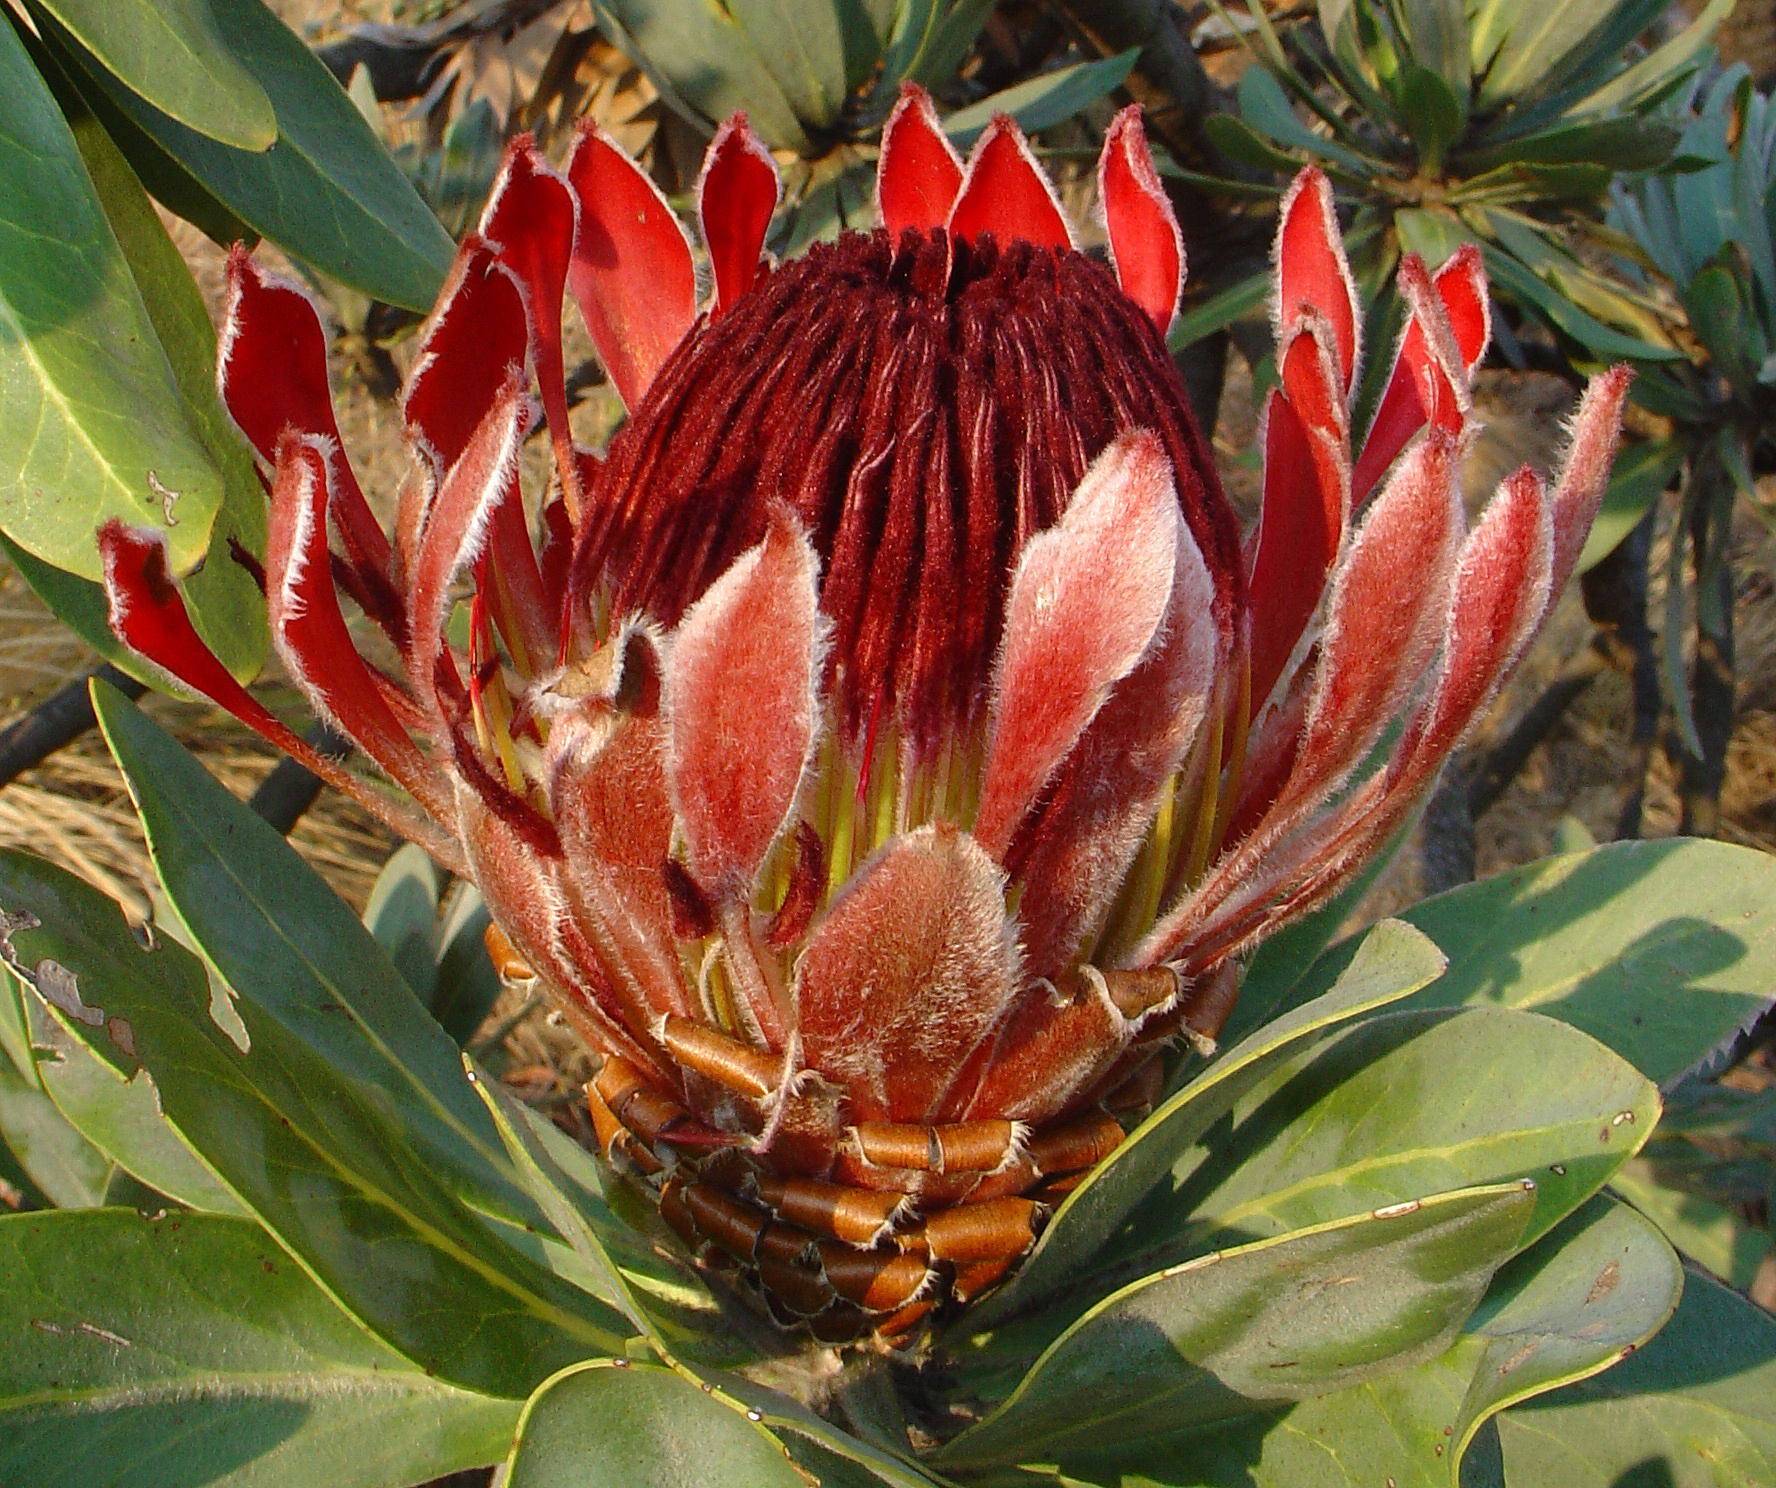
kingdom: Plantae
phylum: Tracheophyta
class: Magnoliopsida
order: Proteales
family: Proteaceae
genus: Protea
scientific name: Protea roupelliae
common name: Silver sugarbush
